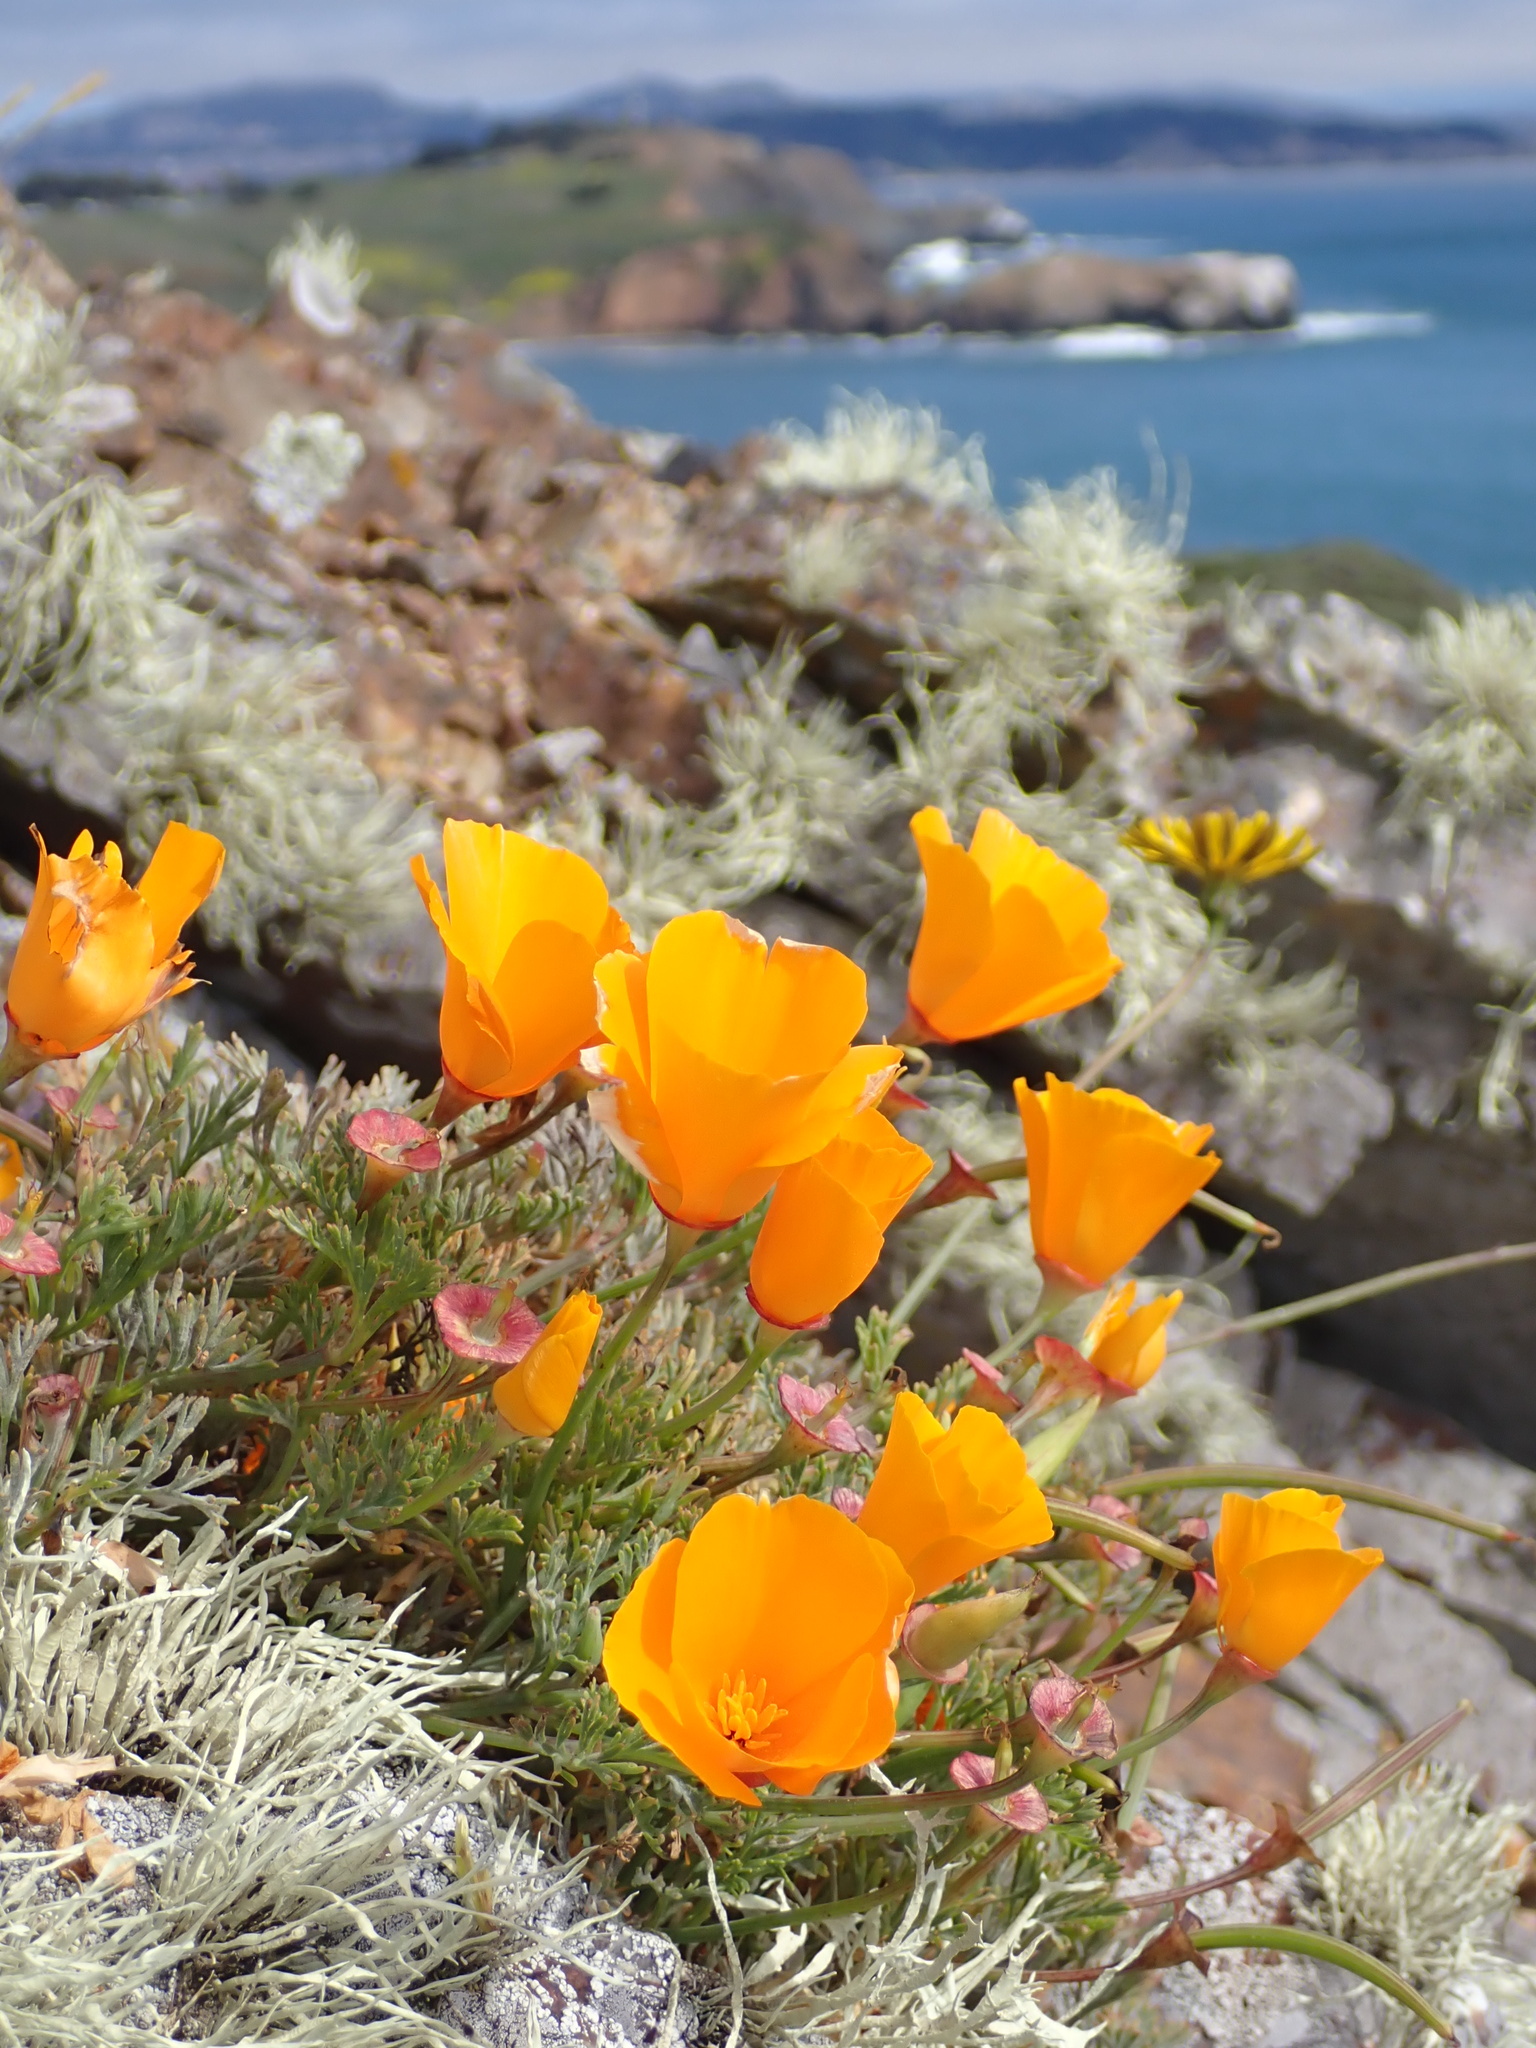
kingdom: Plantae
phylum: Tracheophyta
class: Magnoliopsida
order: Ranunculales
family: Papaveraceae
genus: Eschscholzia
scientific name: Eschscholzia californica
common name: California poppy
